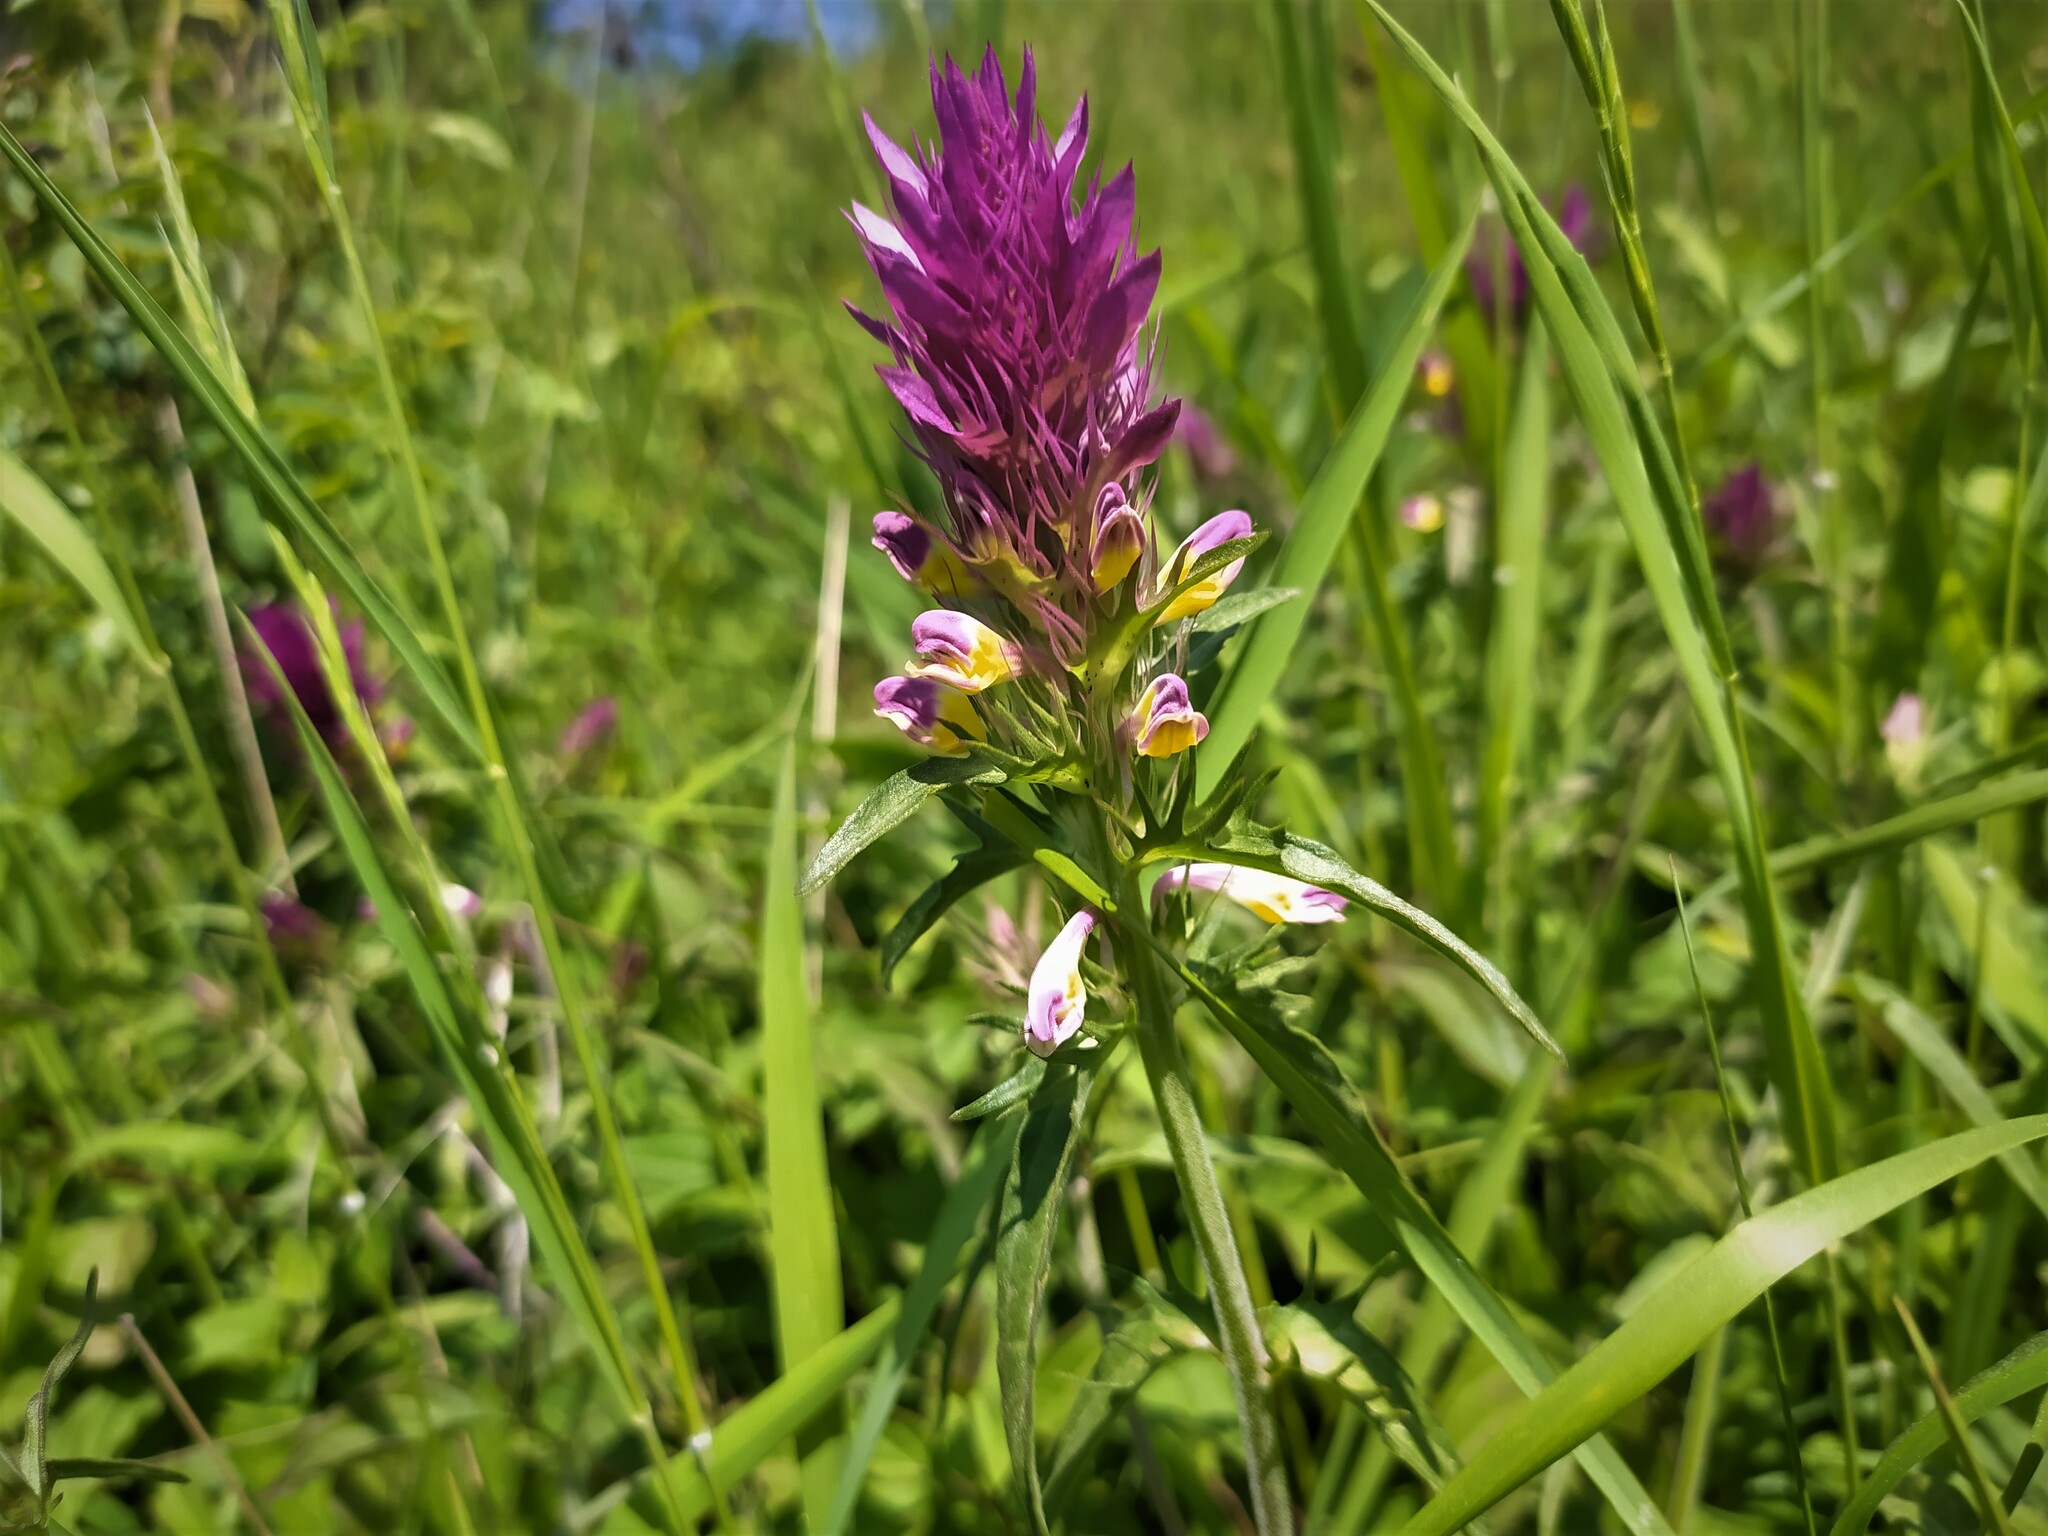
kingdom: Plantae
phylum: Tracheophyta
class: Magnoliopsida
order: Lamiales
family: Orobanchaceae
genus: Melampyrum
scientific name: Melampyrum arvense
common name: Field cow-wheat
